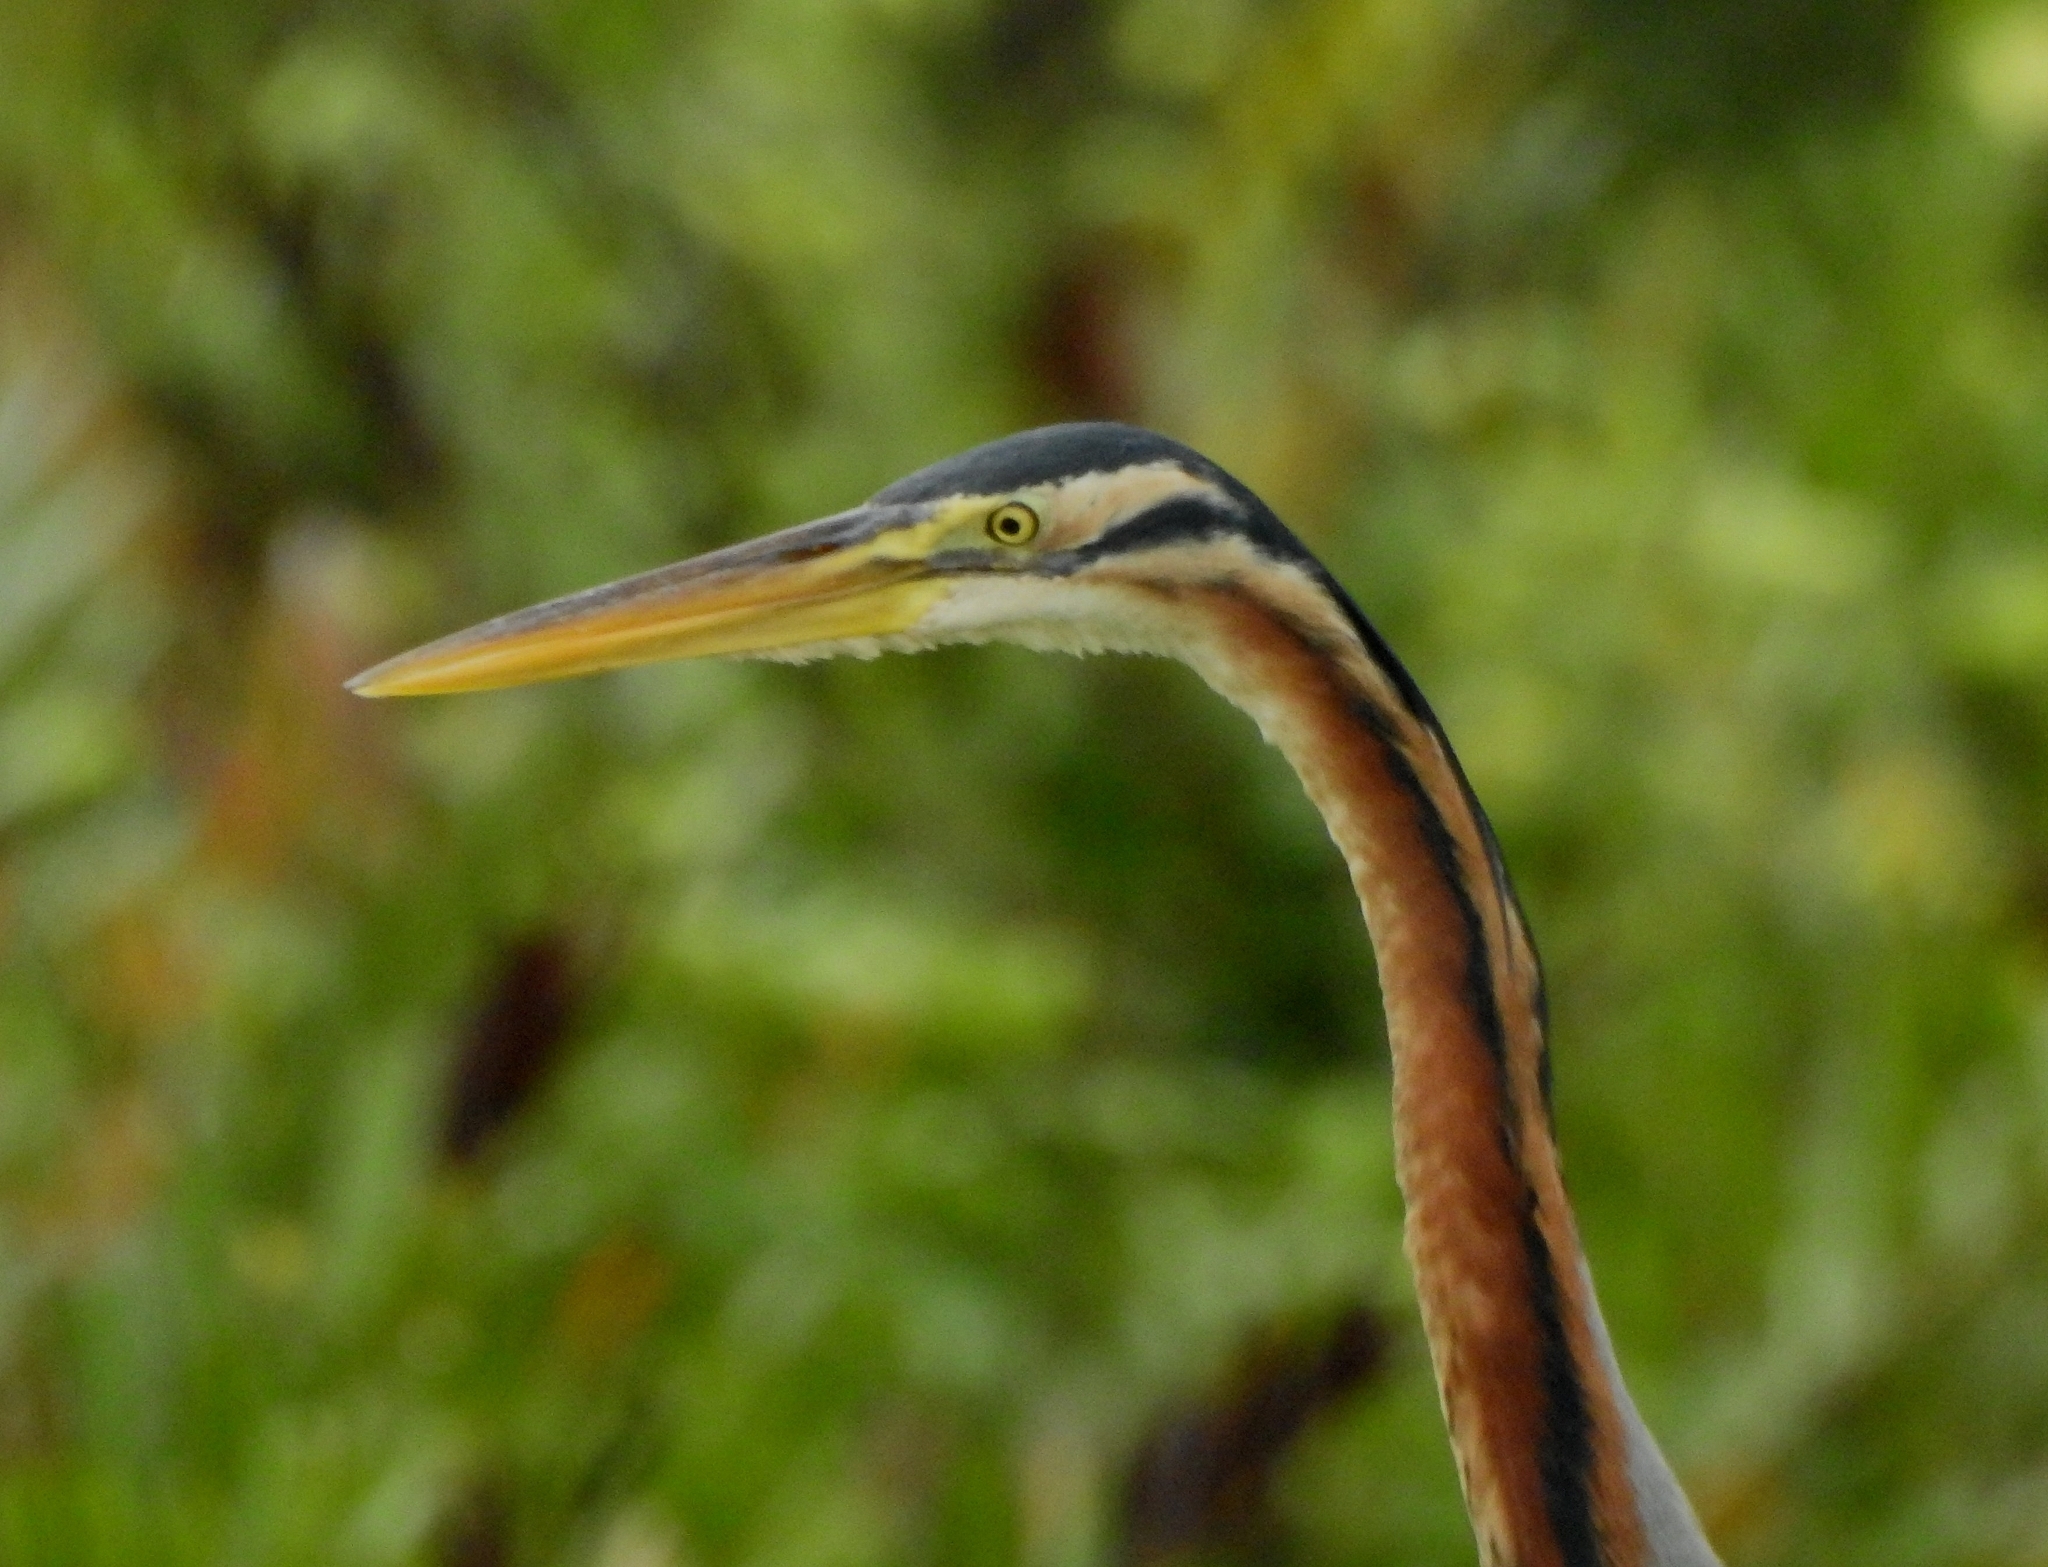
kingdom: Animalia
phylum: Chordata
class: Aves
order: Pelecaniformes
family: Ardeidae
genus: Ardea
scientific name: Ardea purpurea
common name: Purple heron
